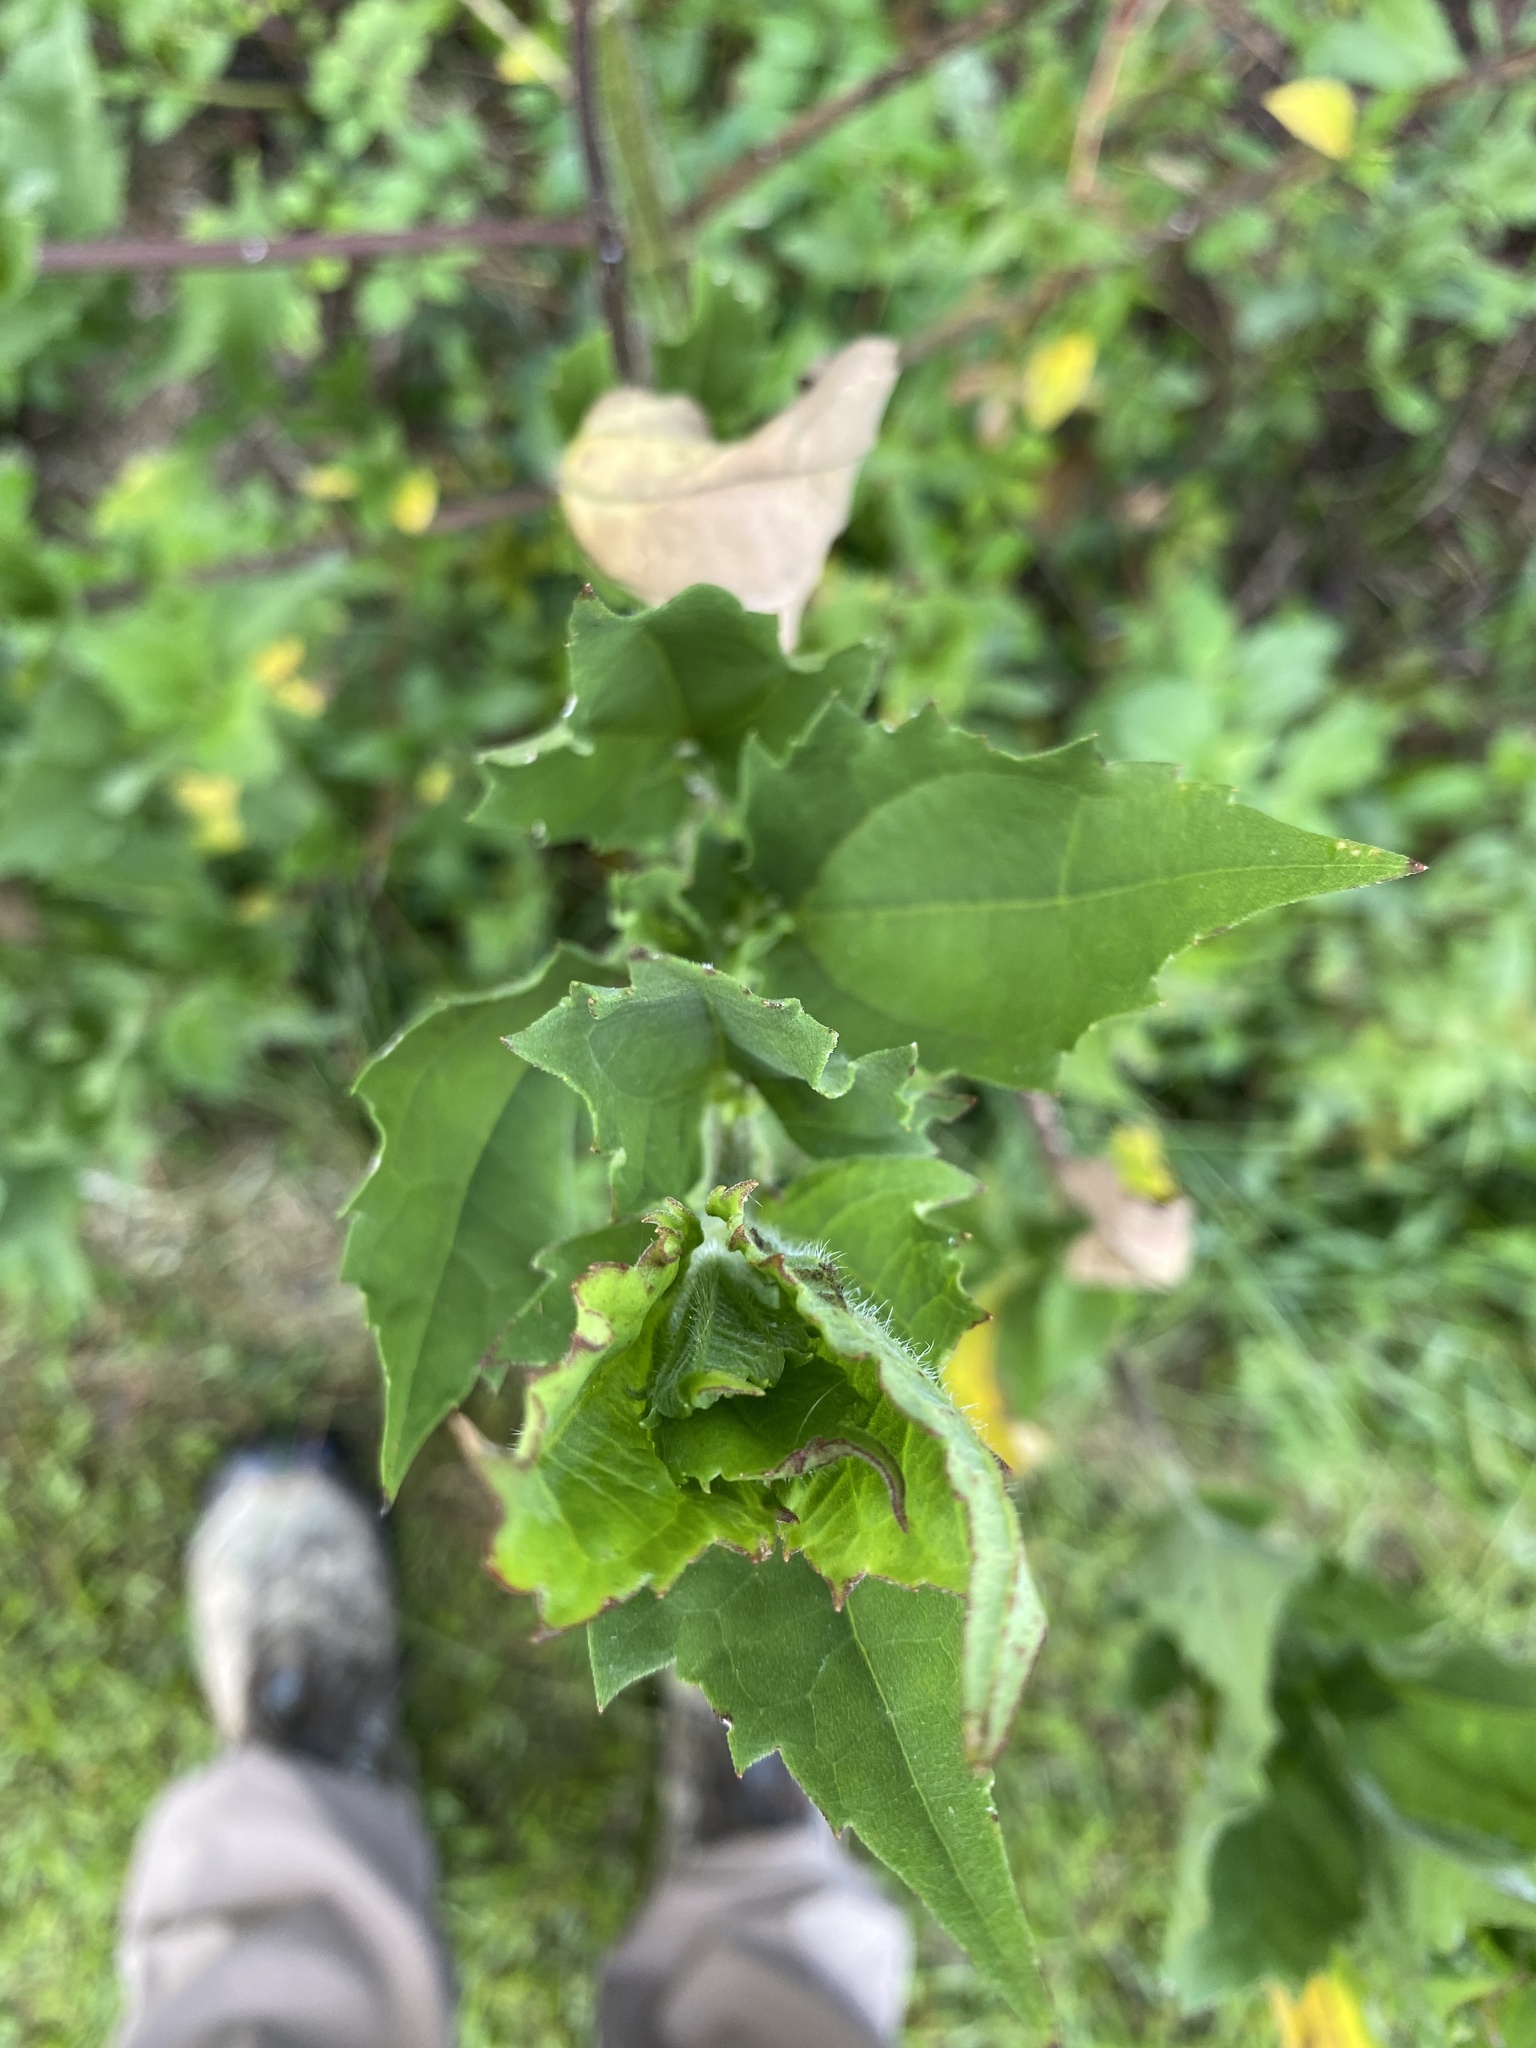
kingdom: Plantae
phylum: Tracheophyta
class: Magnoliopsida
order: Asterales
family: Asteraceae
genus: Iva
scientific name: Iva annua
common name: Marsh-elder
